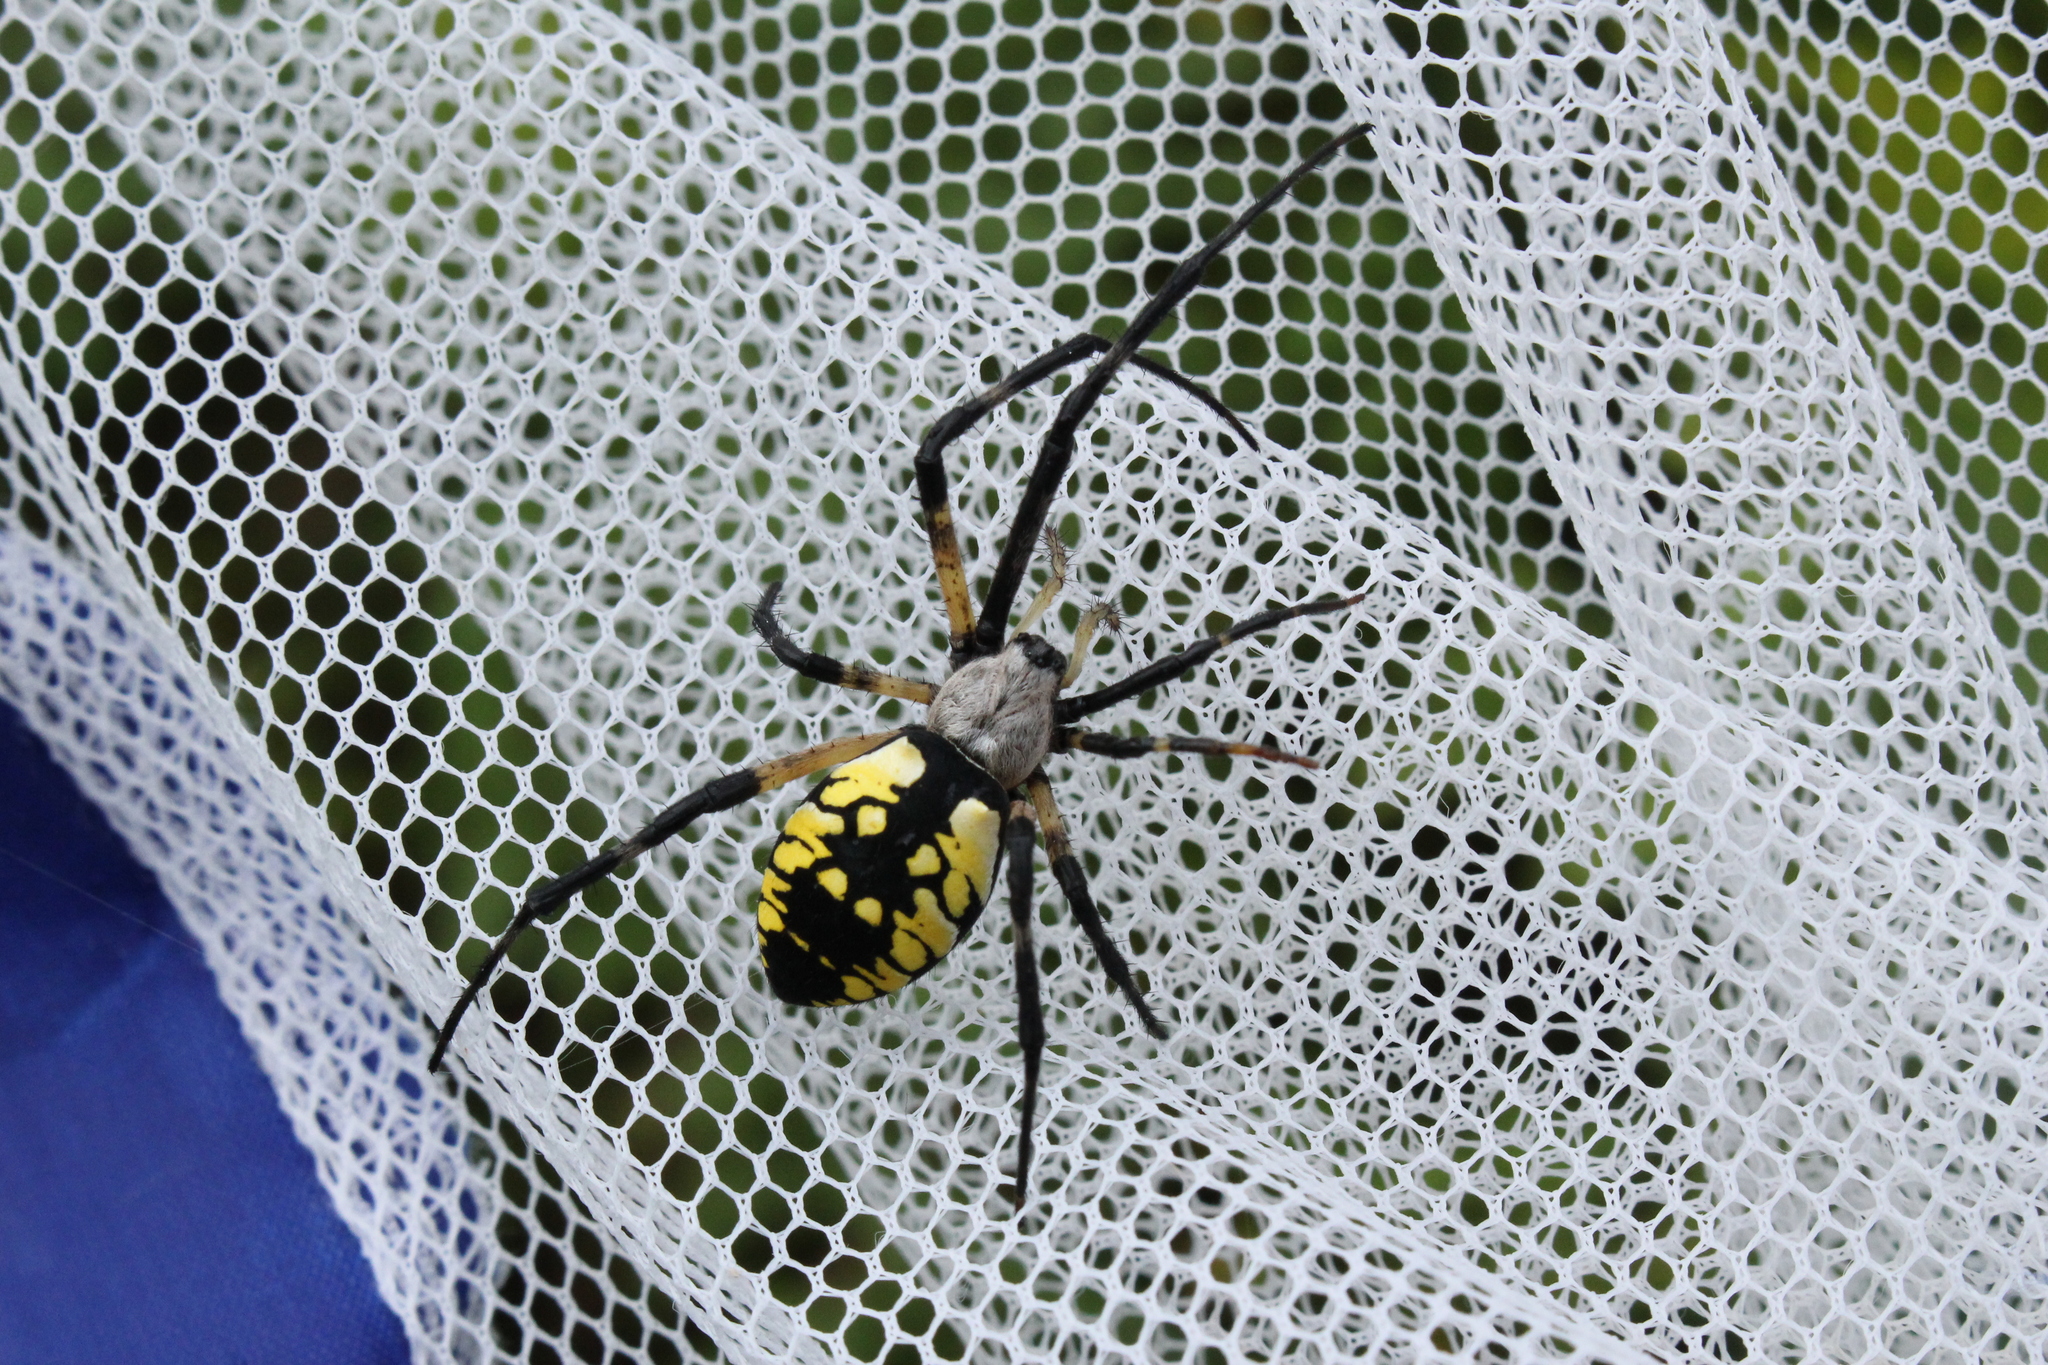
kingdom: Animalia
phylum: Arthropoda
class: Arachnida
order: Araneae
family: Araneidae
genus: Argiope
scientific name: Argiope aurantia
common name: Orb weavers
